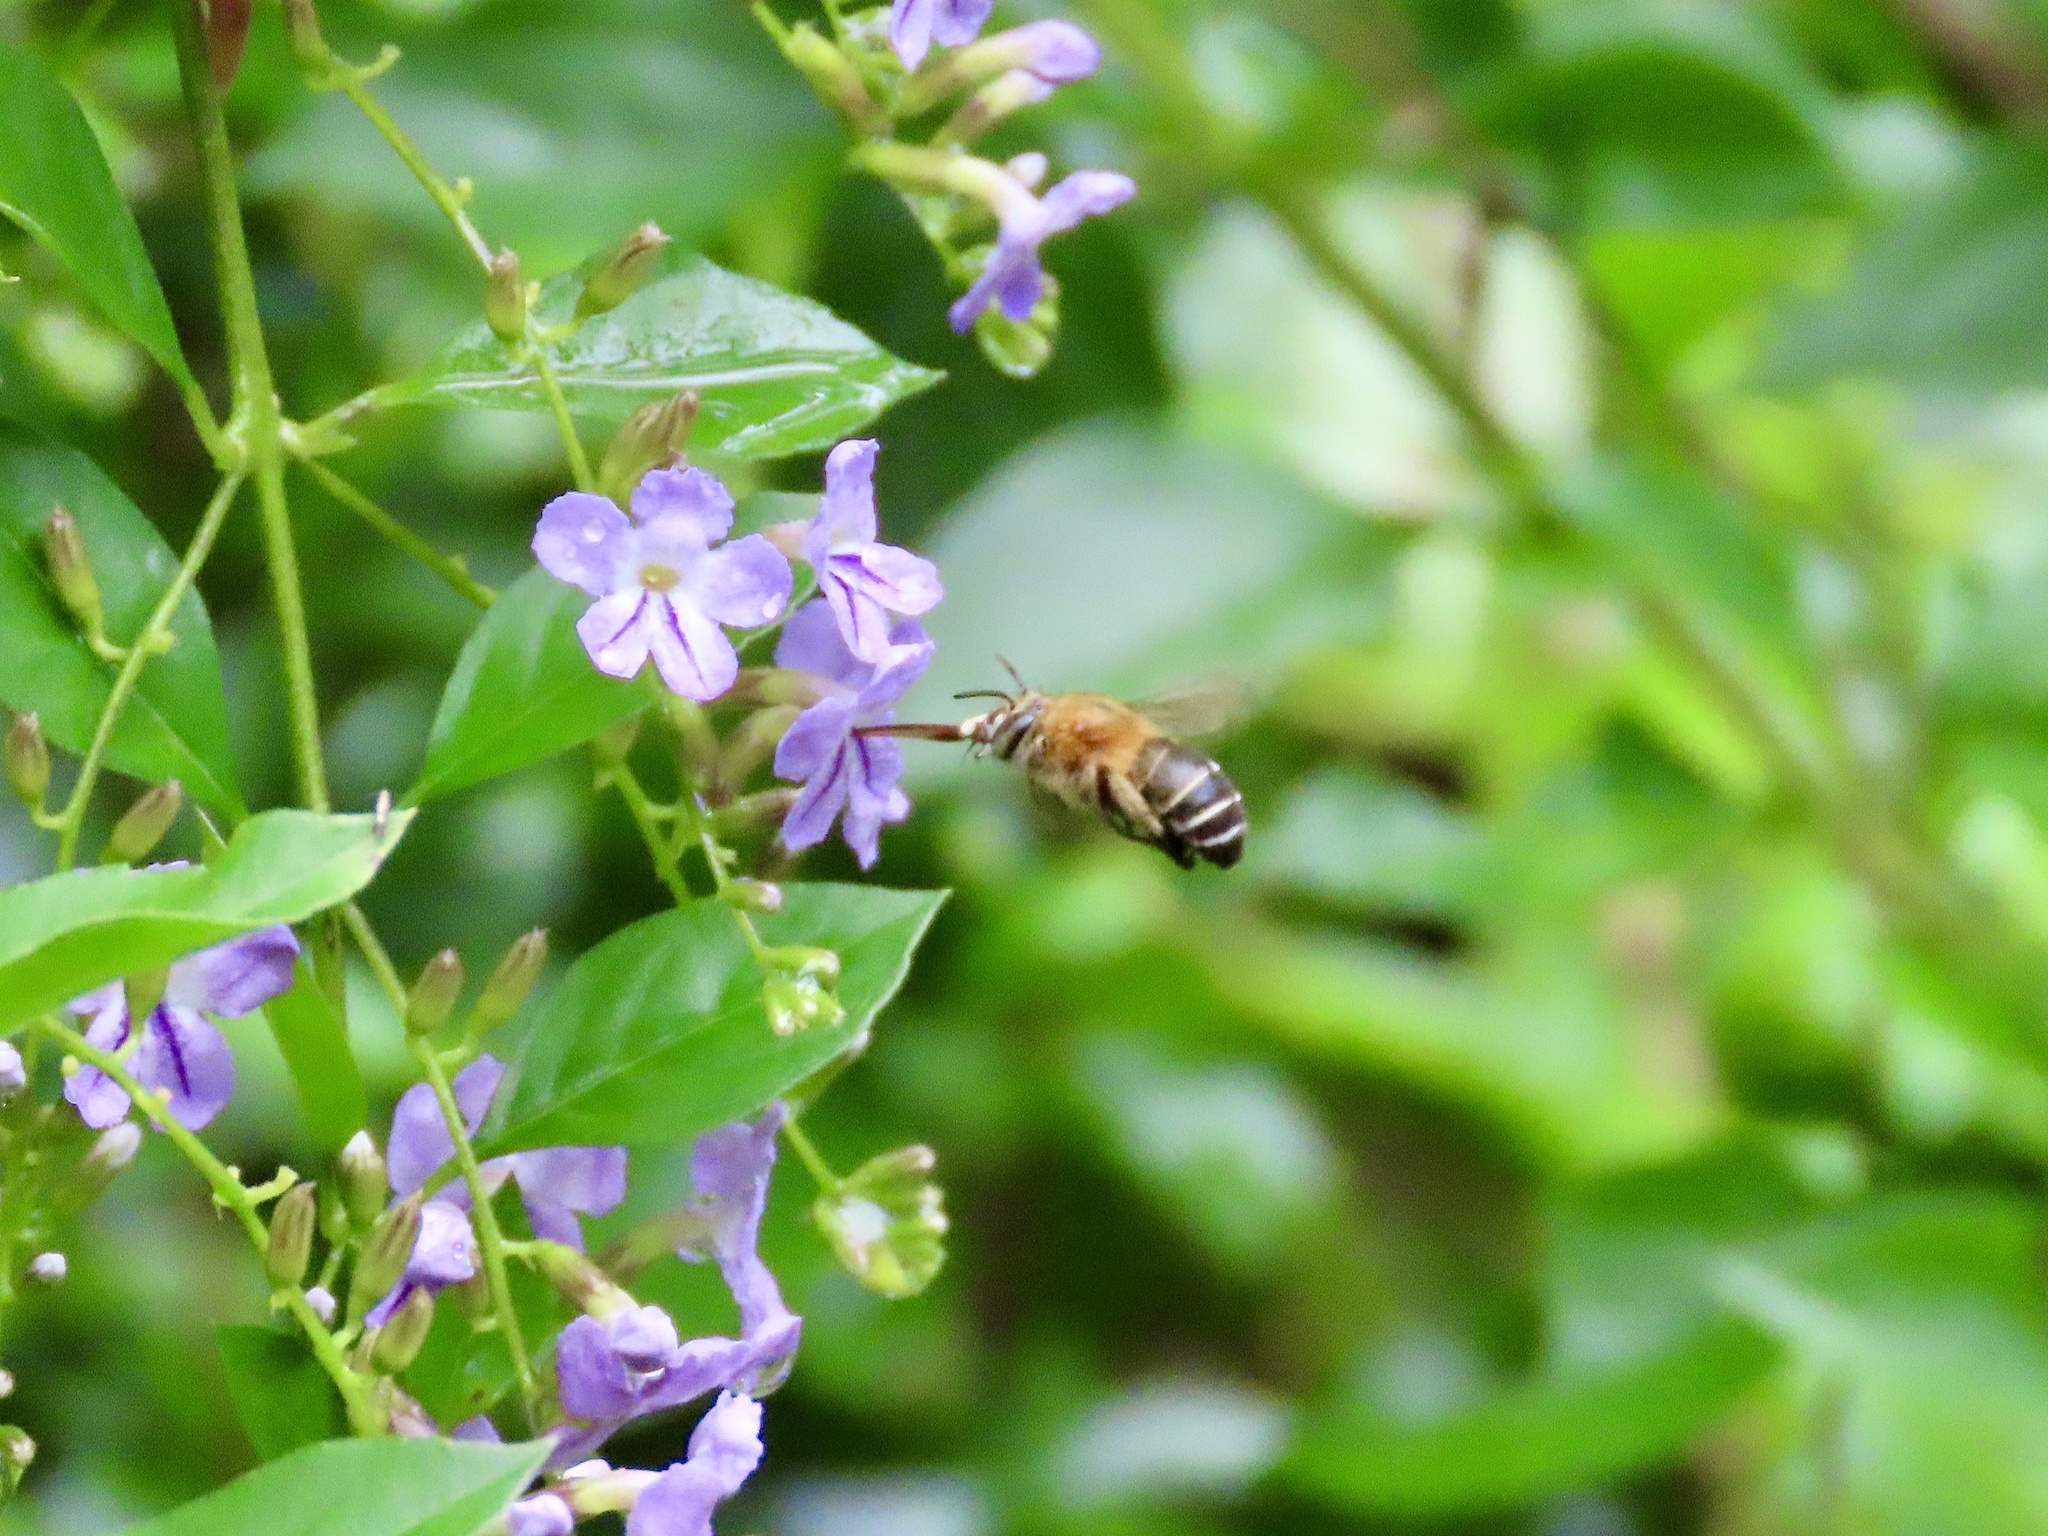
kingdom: Animalia
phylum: Arthropoda
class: Insecta
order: Hymenoptera
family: Apidae
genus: Amegilla
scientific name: Amegilla florea
